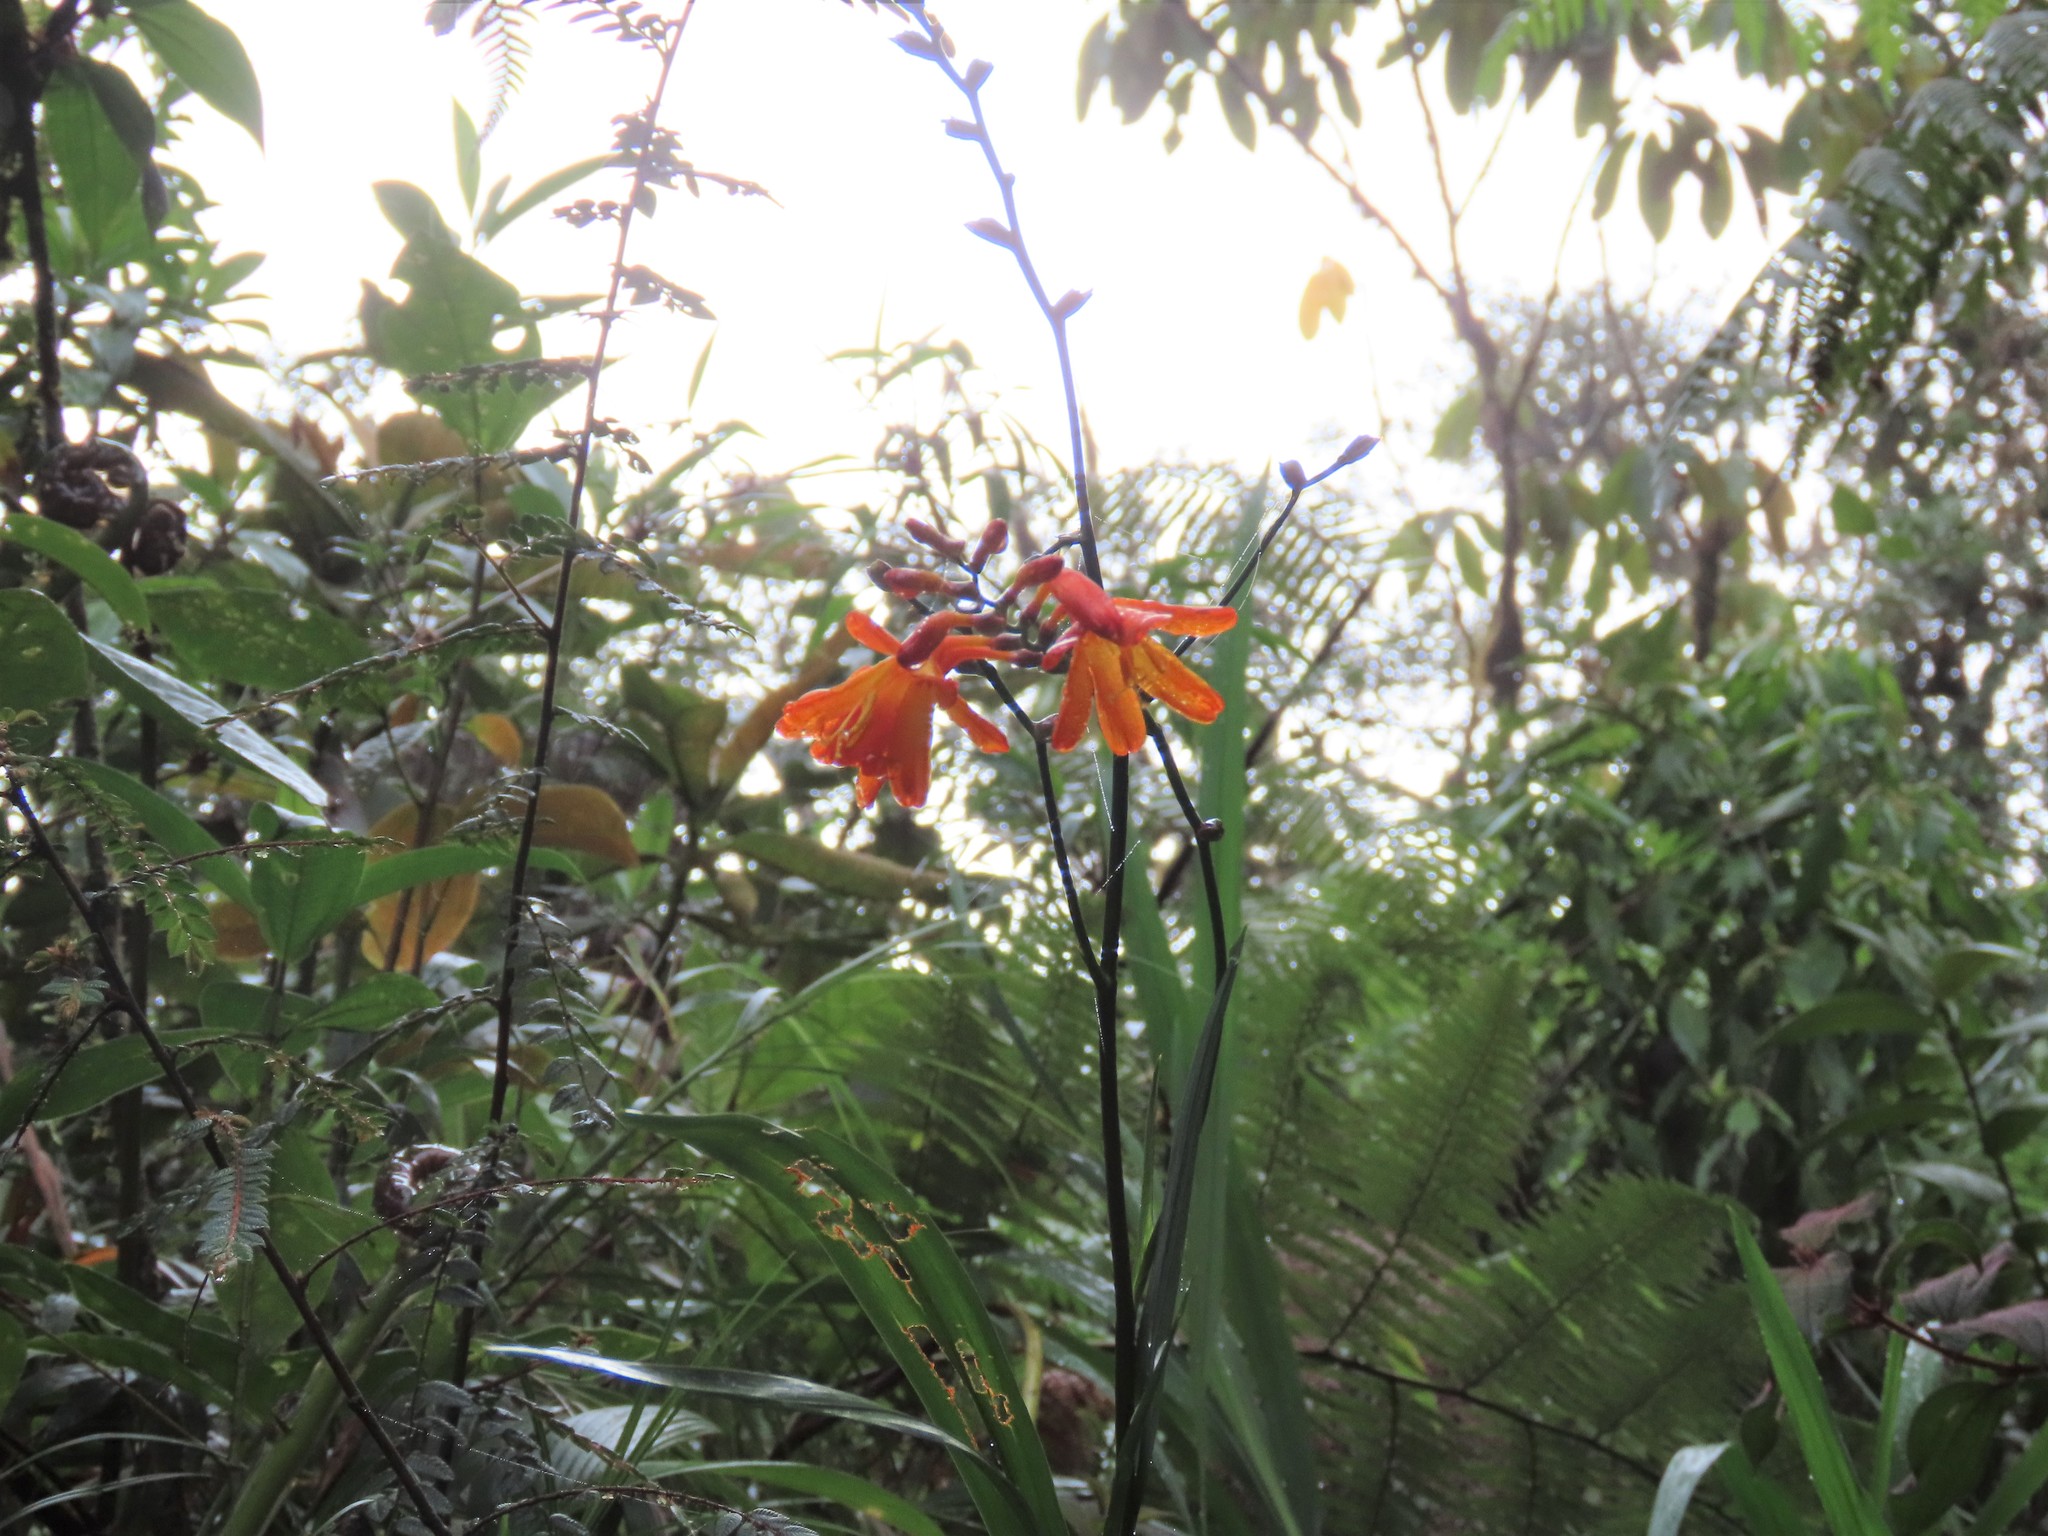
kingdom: Plantae
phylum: Tracheophyta
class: Liliopsida
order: Asparagales
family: Iridaceae
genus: Crocosmia
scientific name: Crocosmia crocosmiiflora
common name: Montbretia
